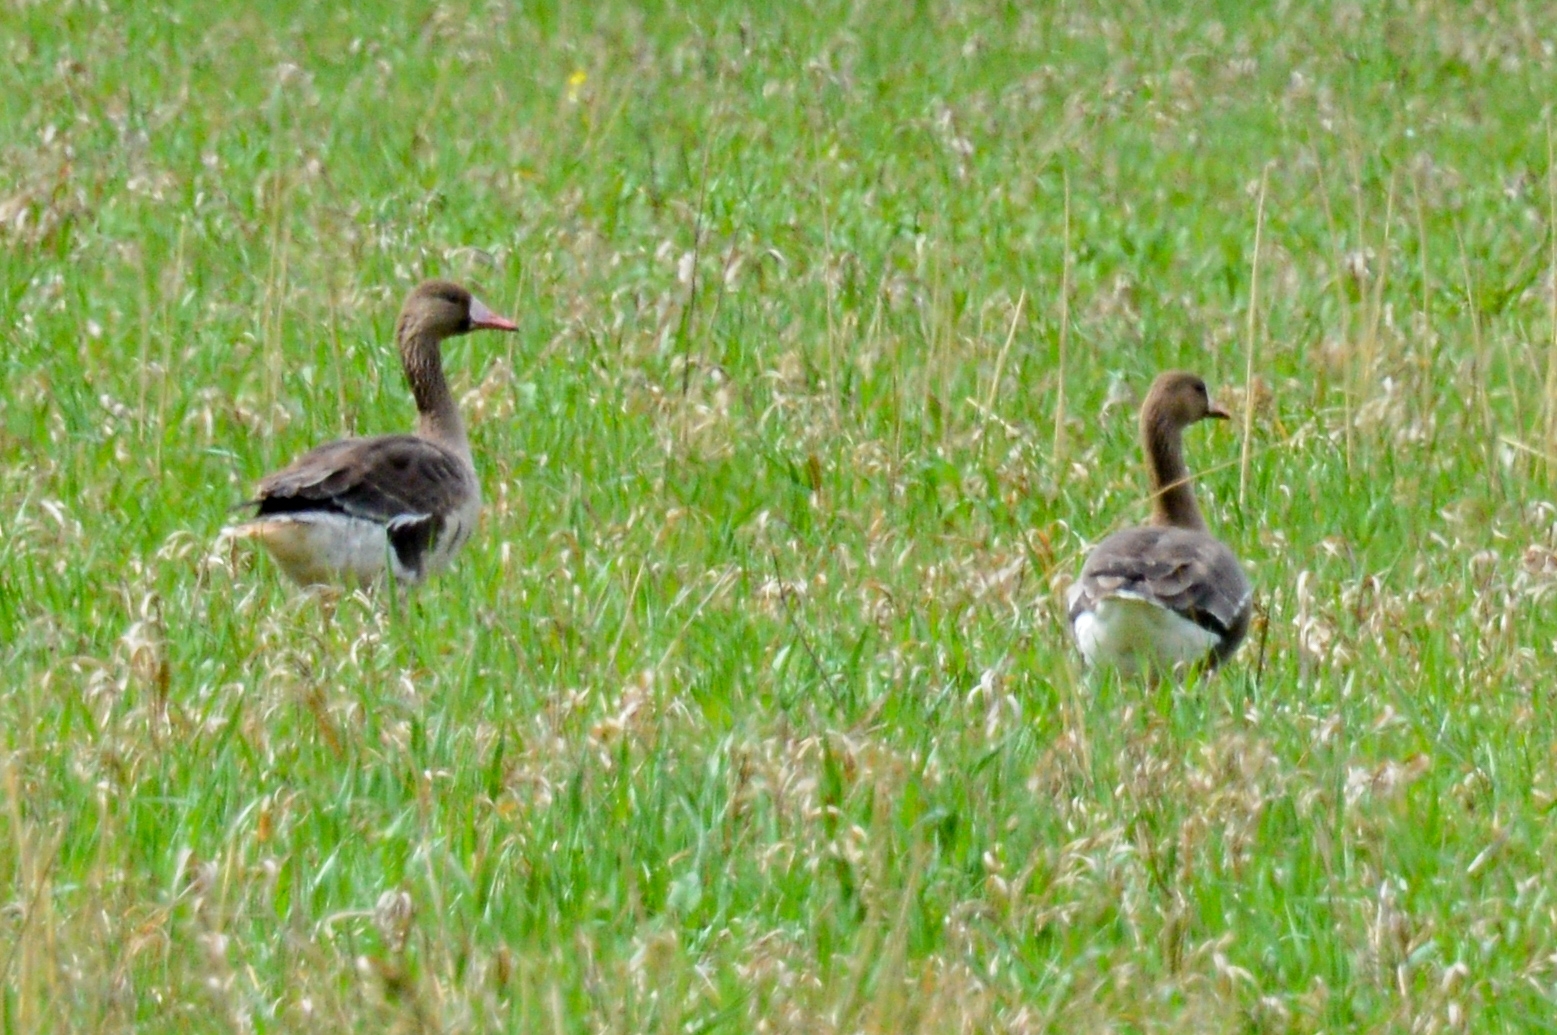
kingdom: Animalia
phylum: Chordata
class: Aves
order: Anseriformes
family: Anatidae
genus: Anser
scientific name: Anser albifrons
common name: Greater white-fronted goose
